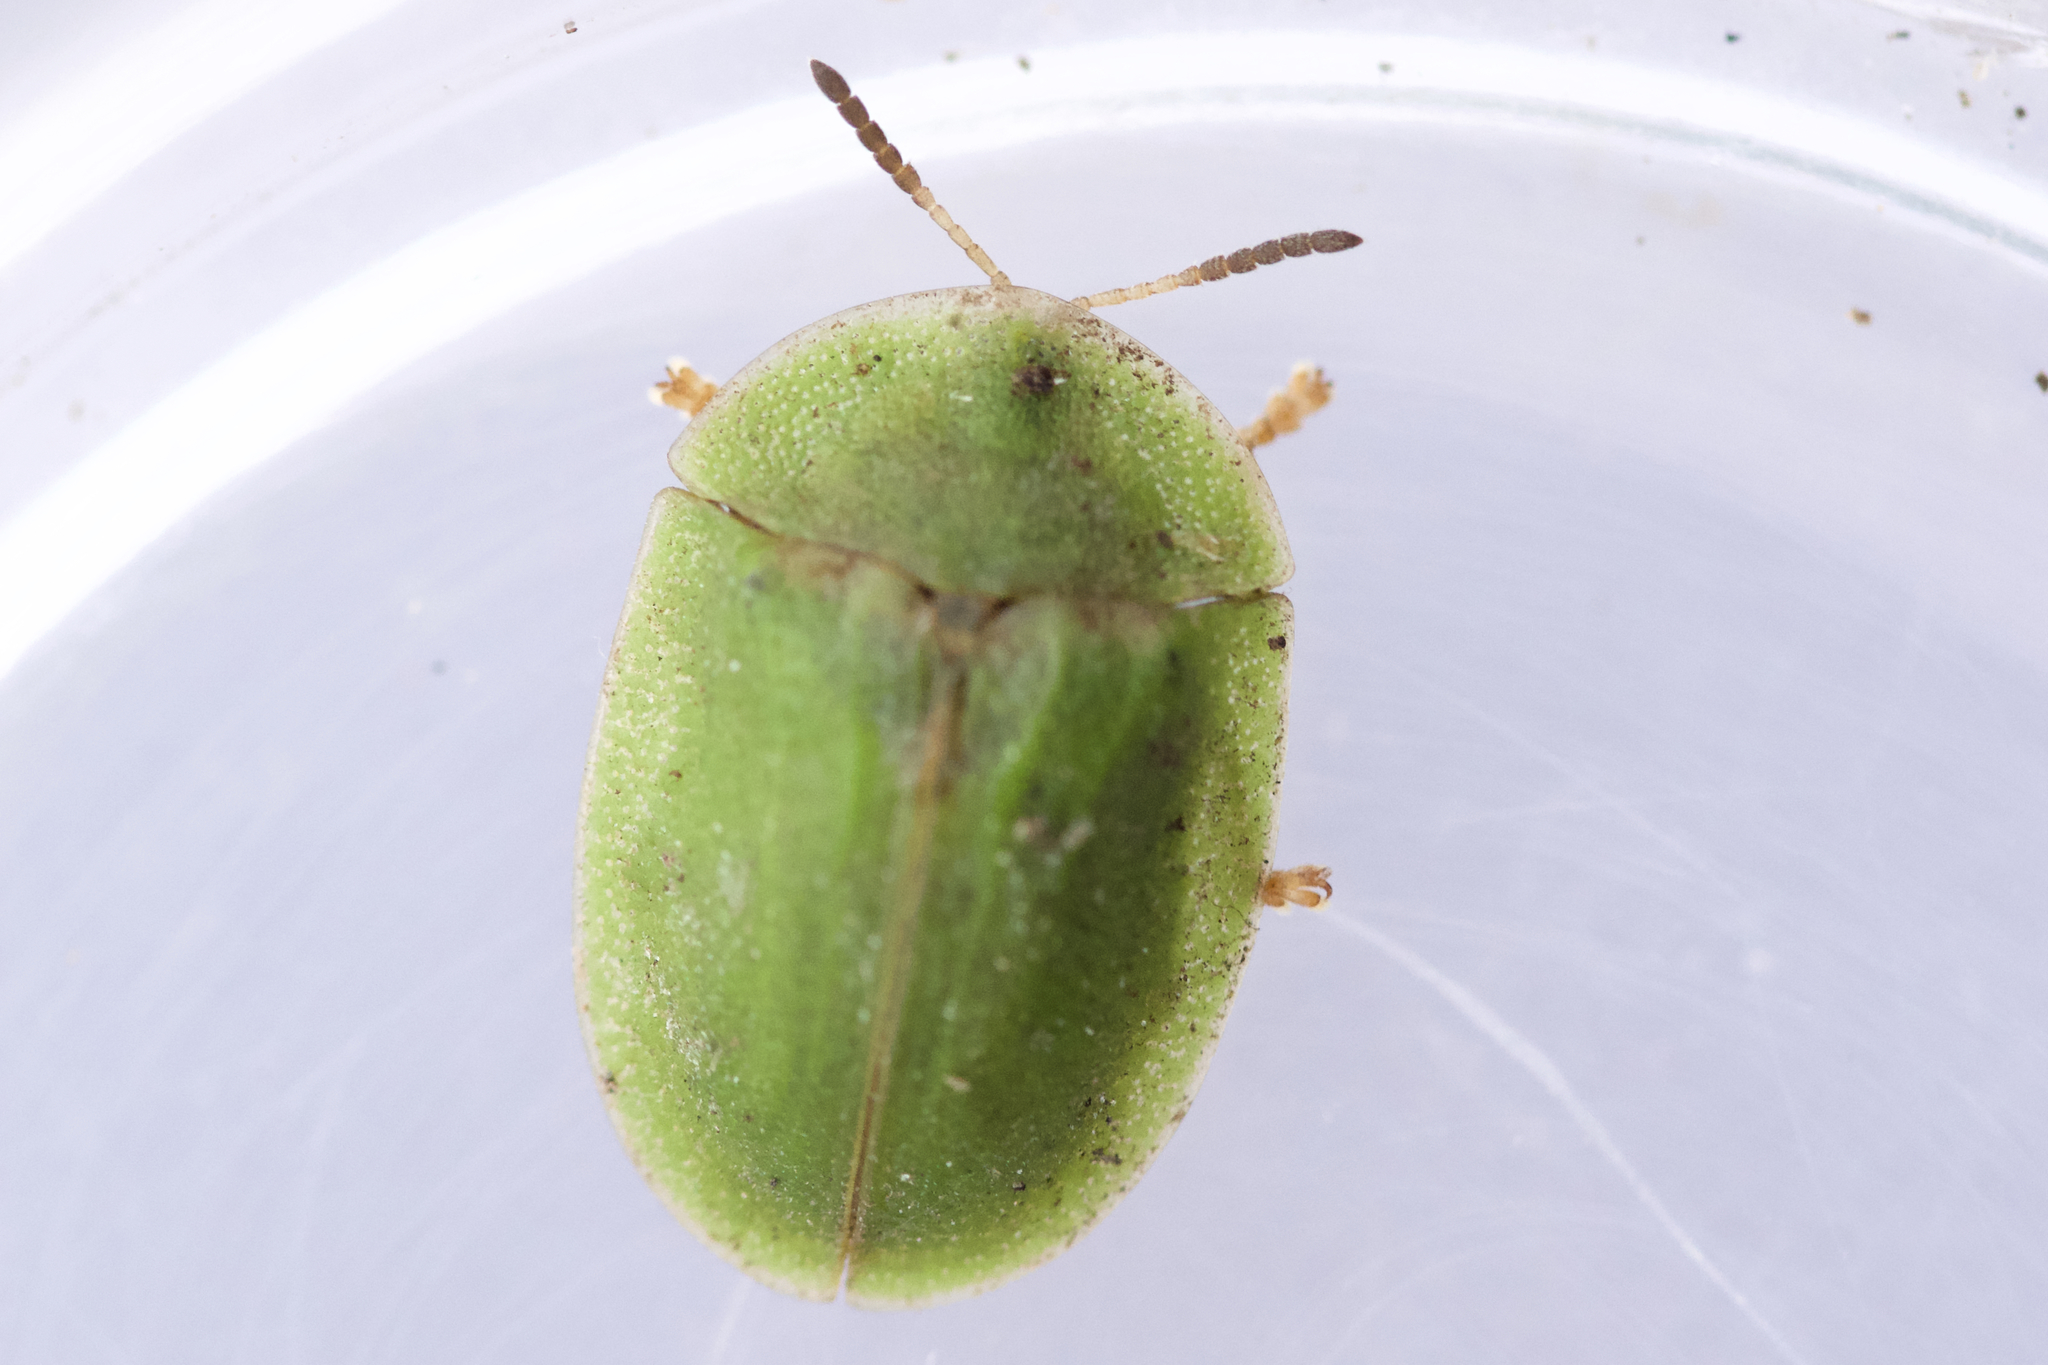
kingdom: Animalia
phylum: Arthropoda
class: Insecta
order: Coleoptera
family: Chrysomelidae
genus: Cassida
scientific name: Cassida rubiginosa
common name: Thistle tortoise beetle
